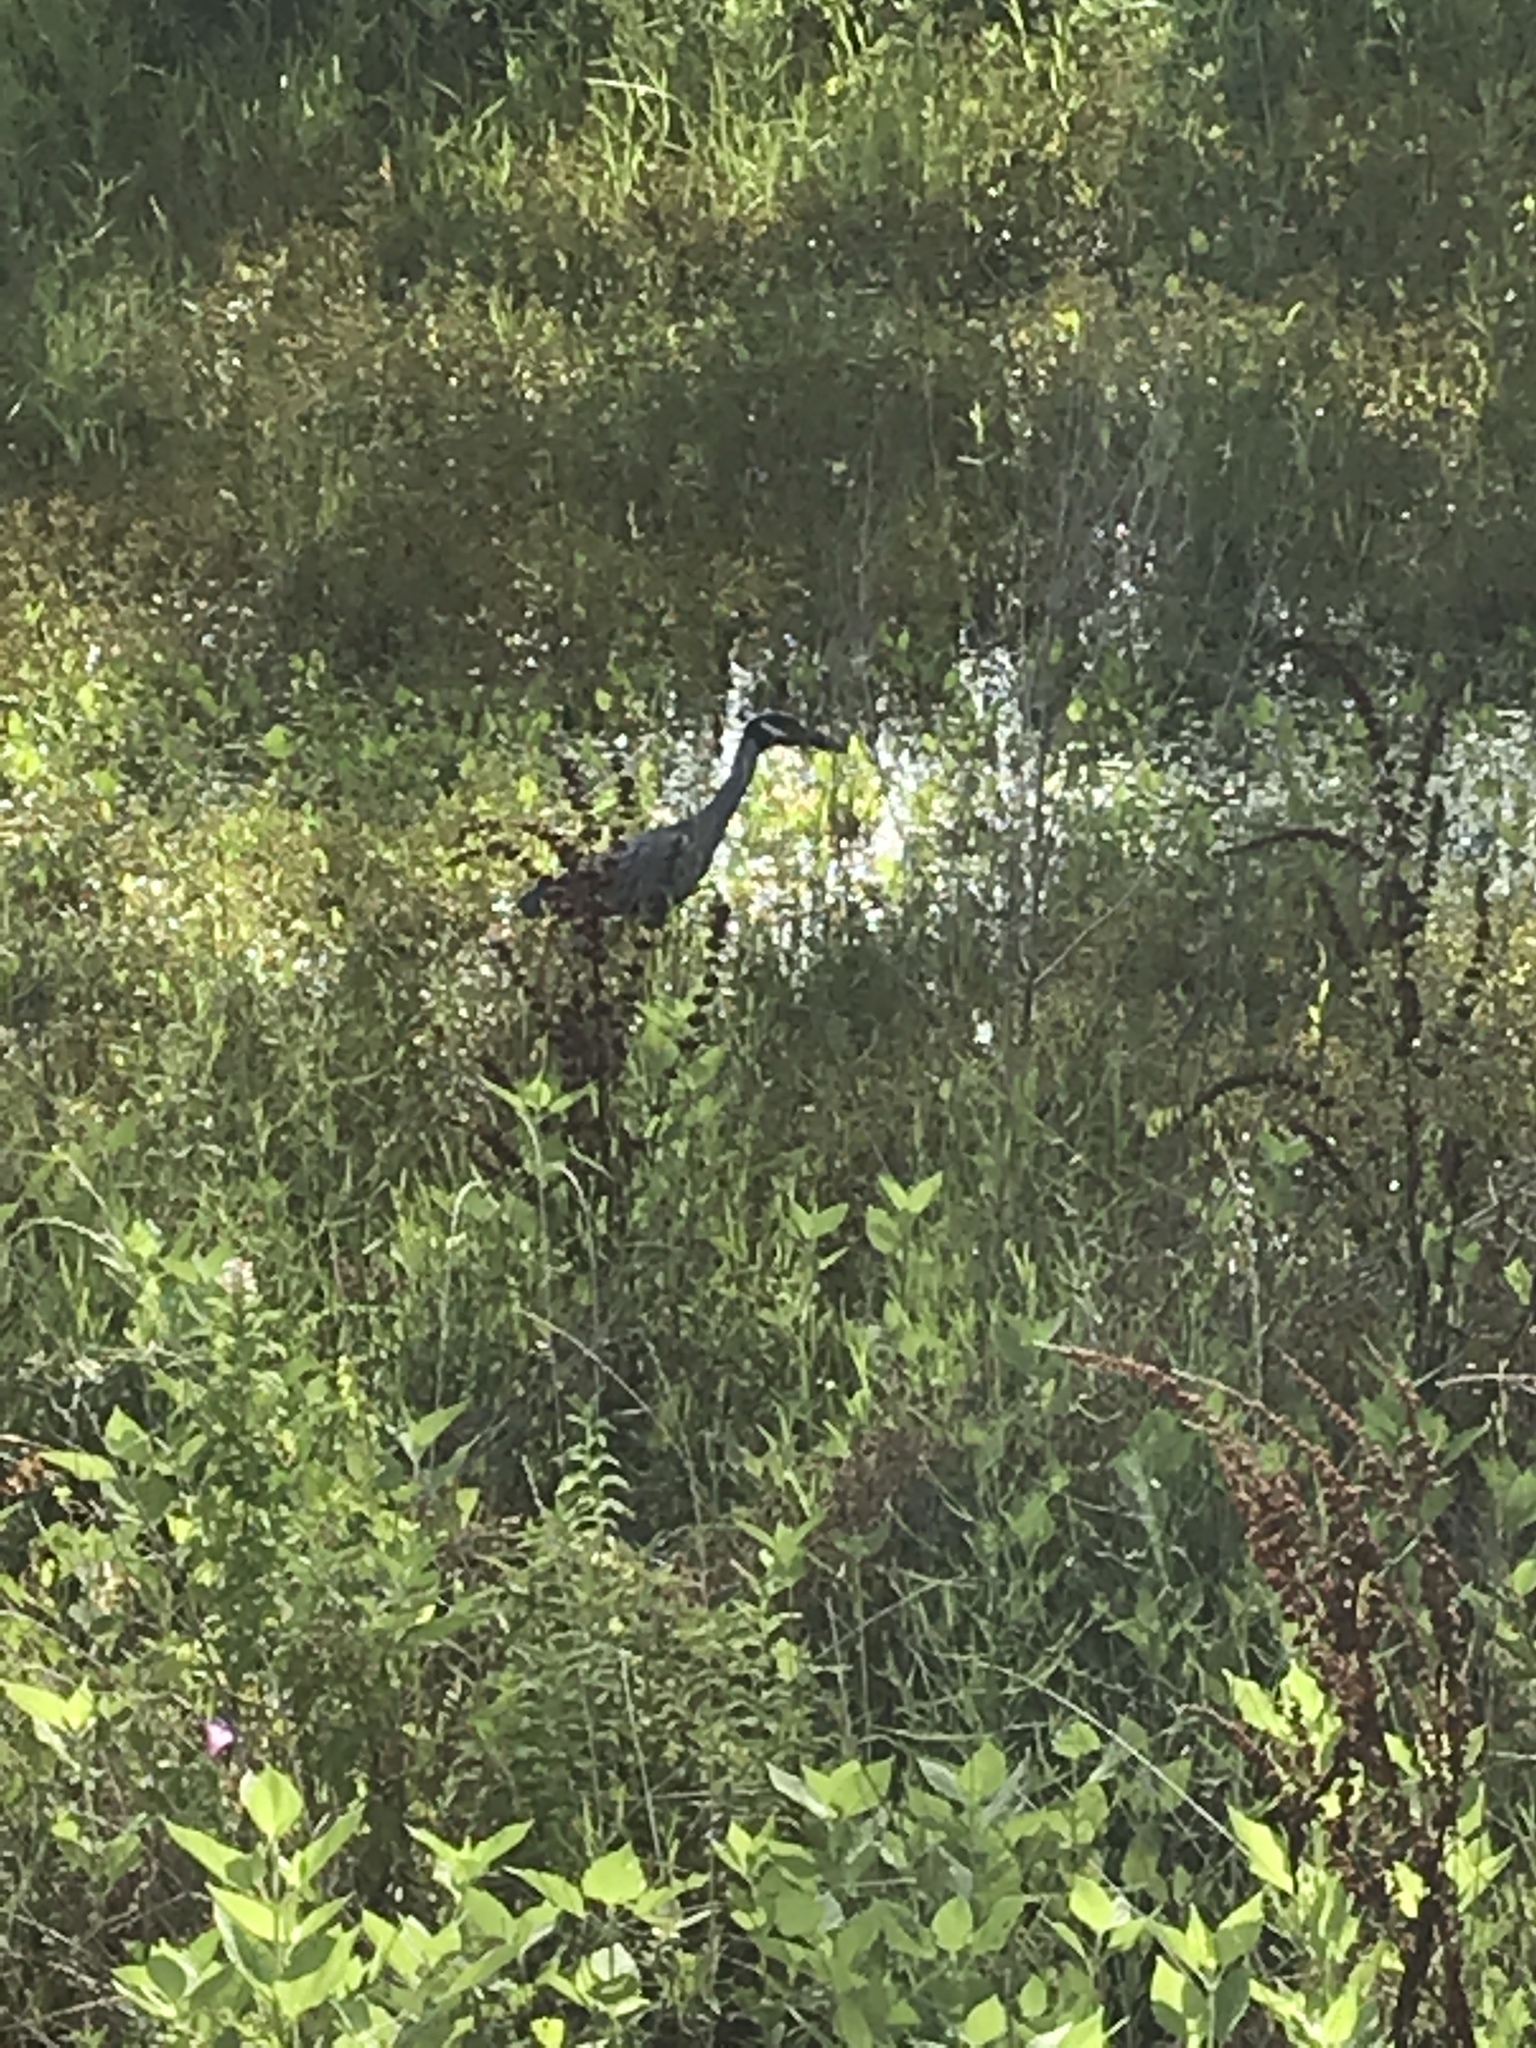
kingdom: Animalia
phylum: Chordata
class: Aves
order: Pelecaniformes
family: Ardeidae
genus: Nyctanassa
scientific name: Nyctanassa violacea
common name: Yellow-crowned night heron
